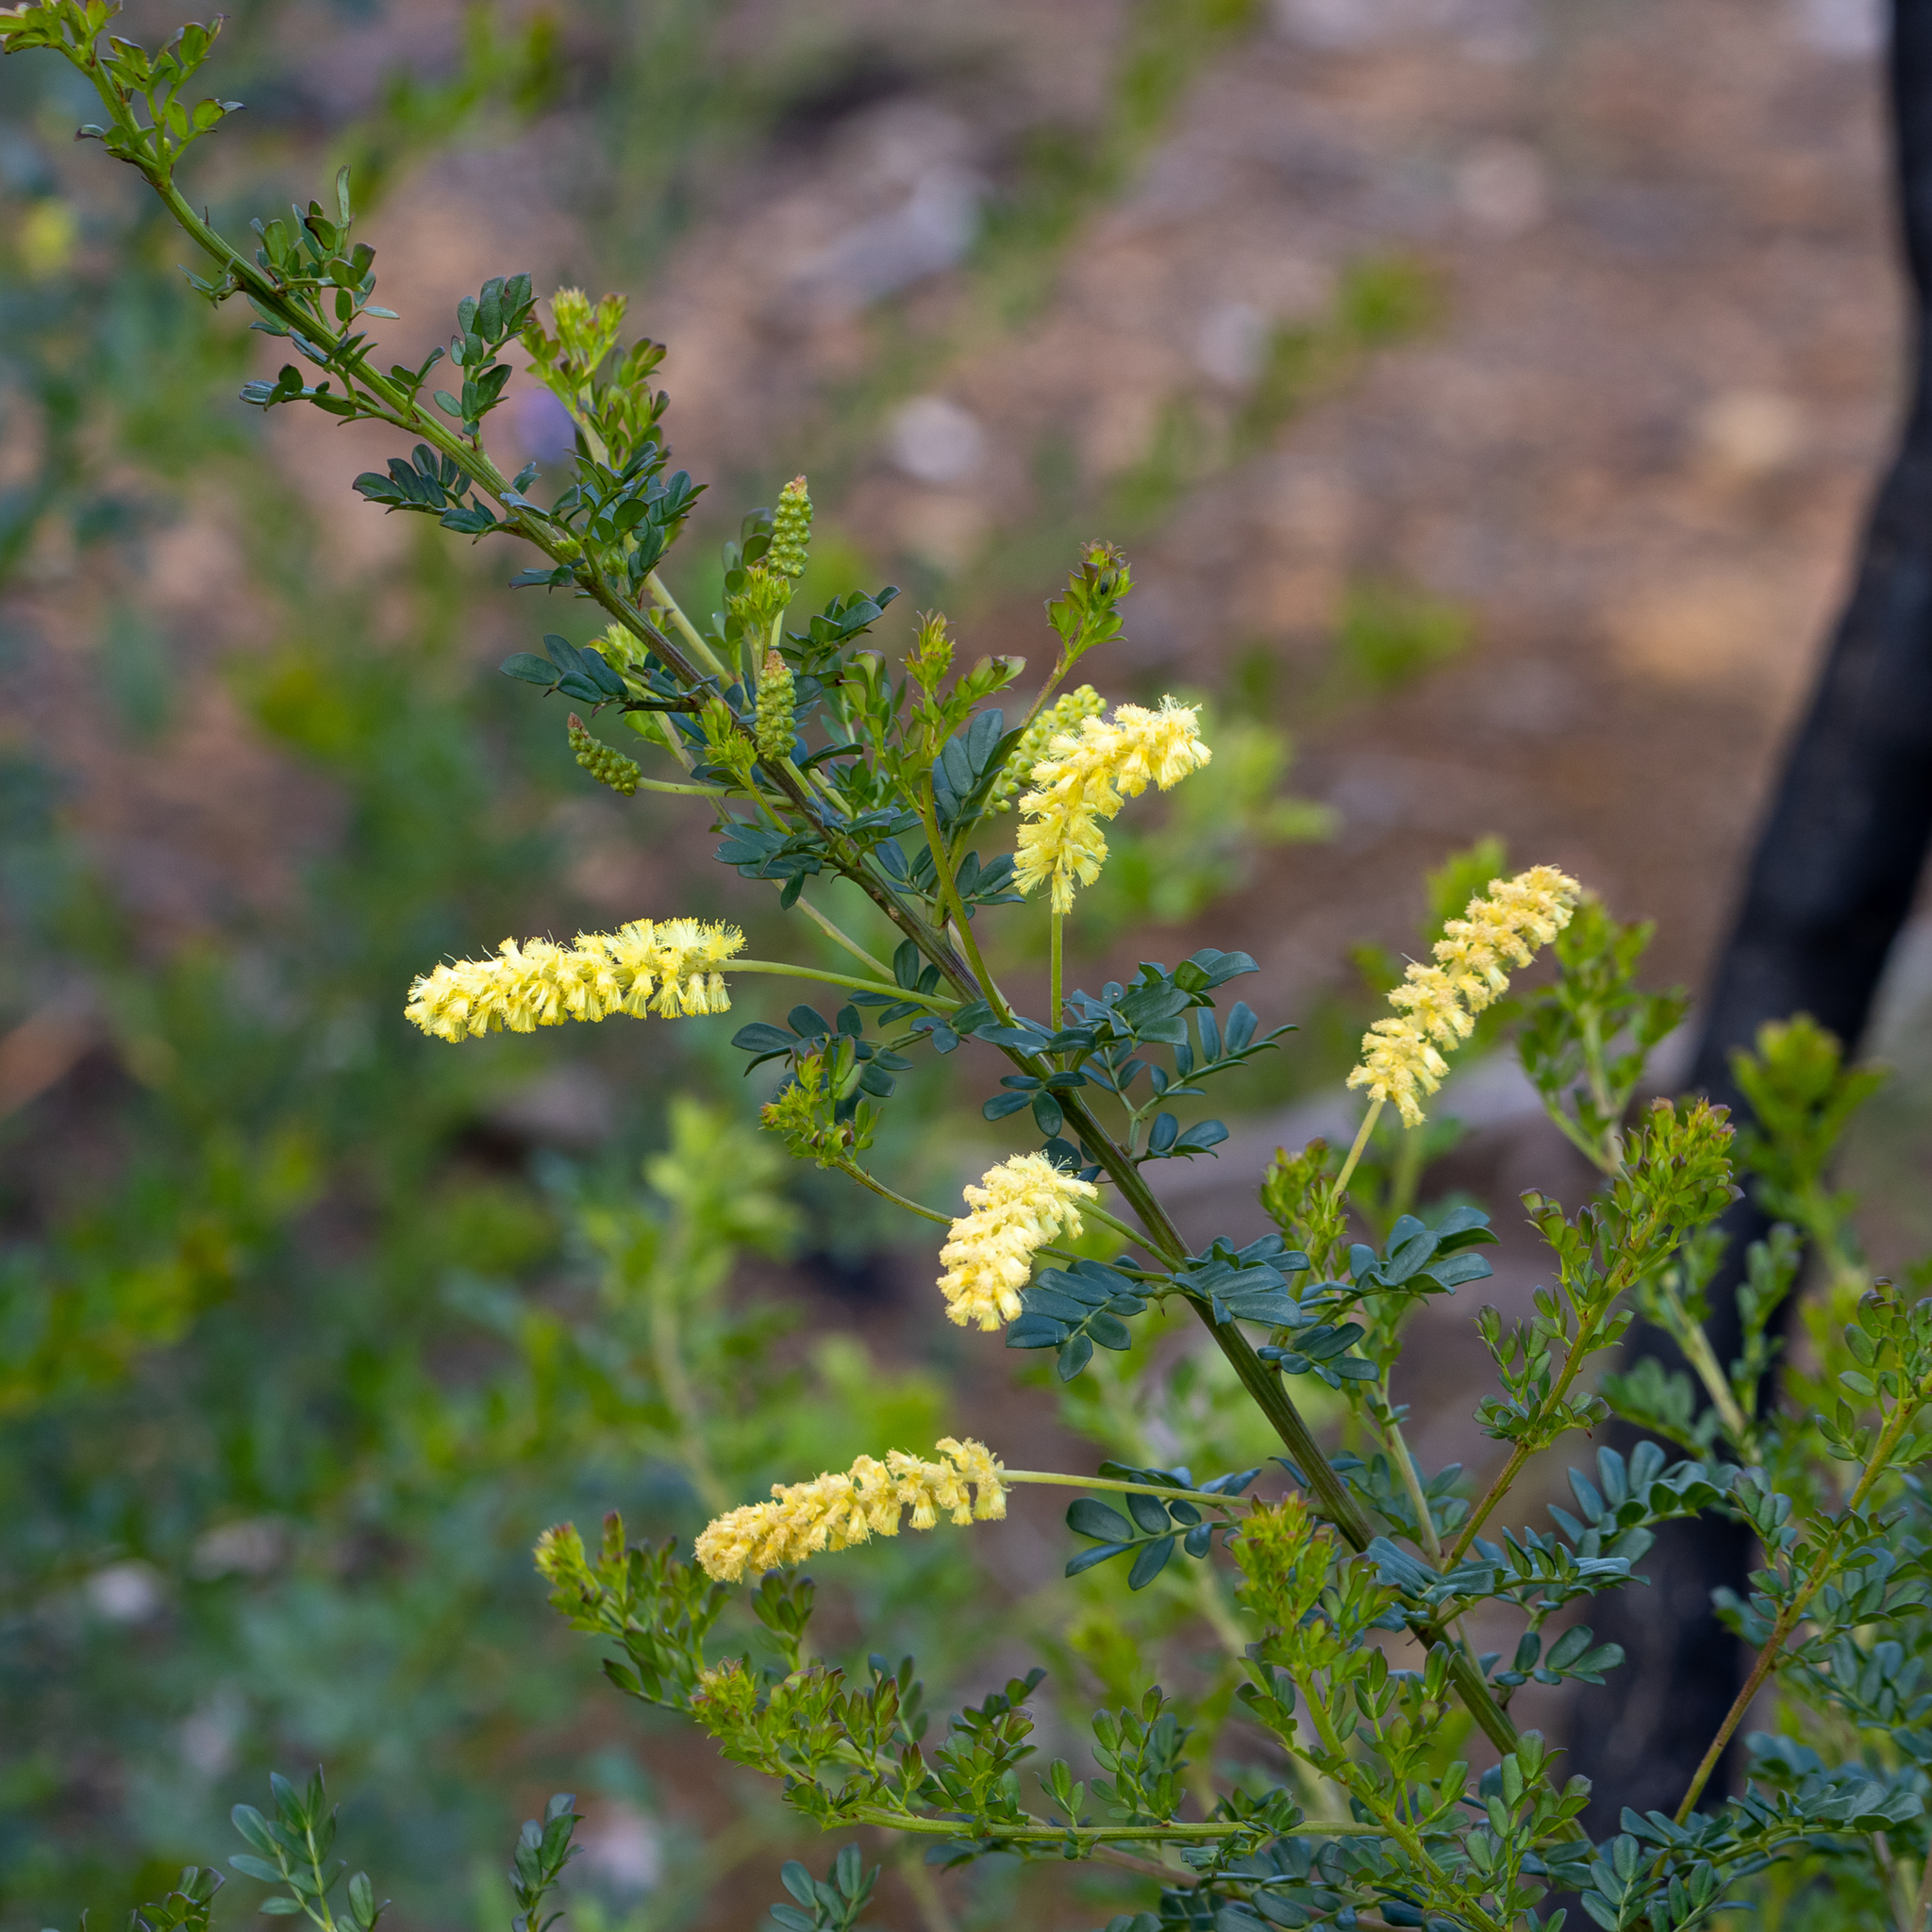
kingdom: Plantae
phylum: Tracheophyta
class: Magnoliopsida
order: Fabales
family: Fabaceae
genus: Acacia
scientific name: Acacia drummondii
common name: Drummond's wattle
